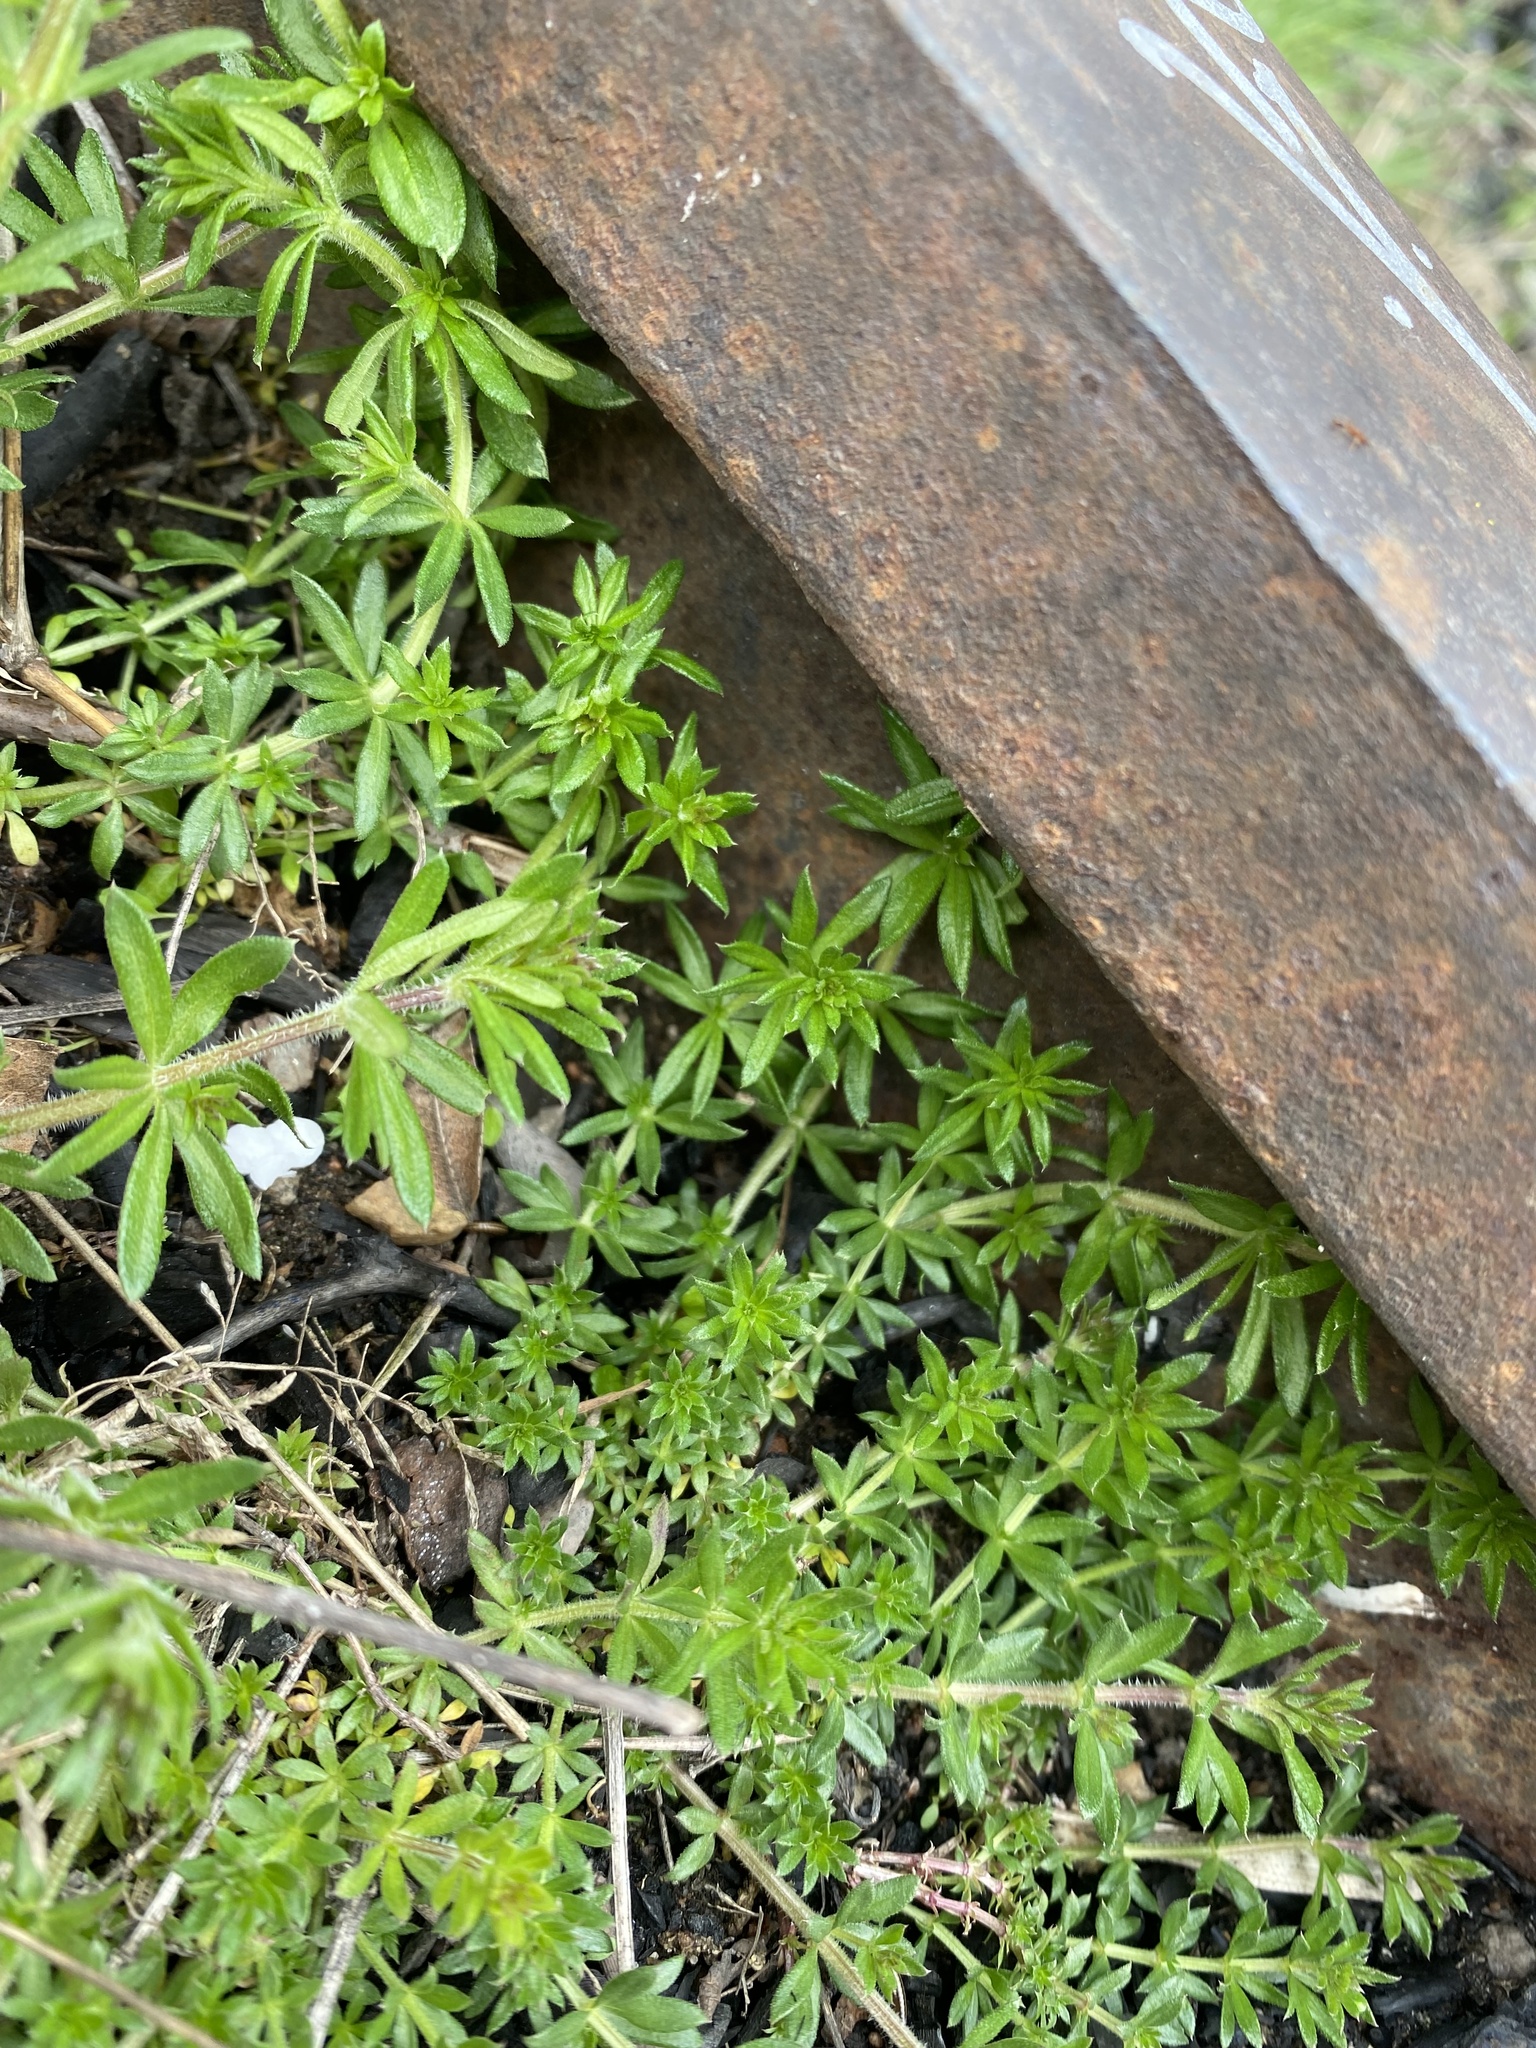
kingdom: Plantae
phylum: Tracheophyta
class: Magnoliopsida
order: Gentianales
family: Rubiaceae
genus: Galium
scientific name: Galium humifusum
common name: Spreading bedstraw
